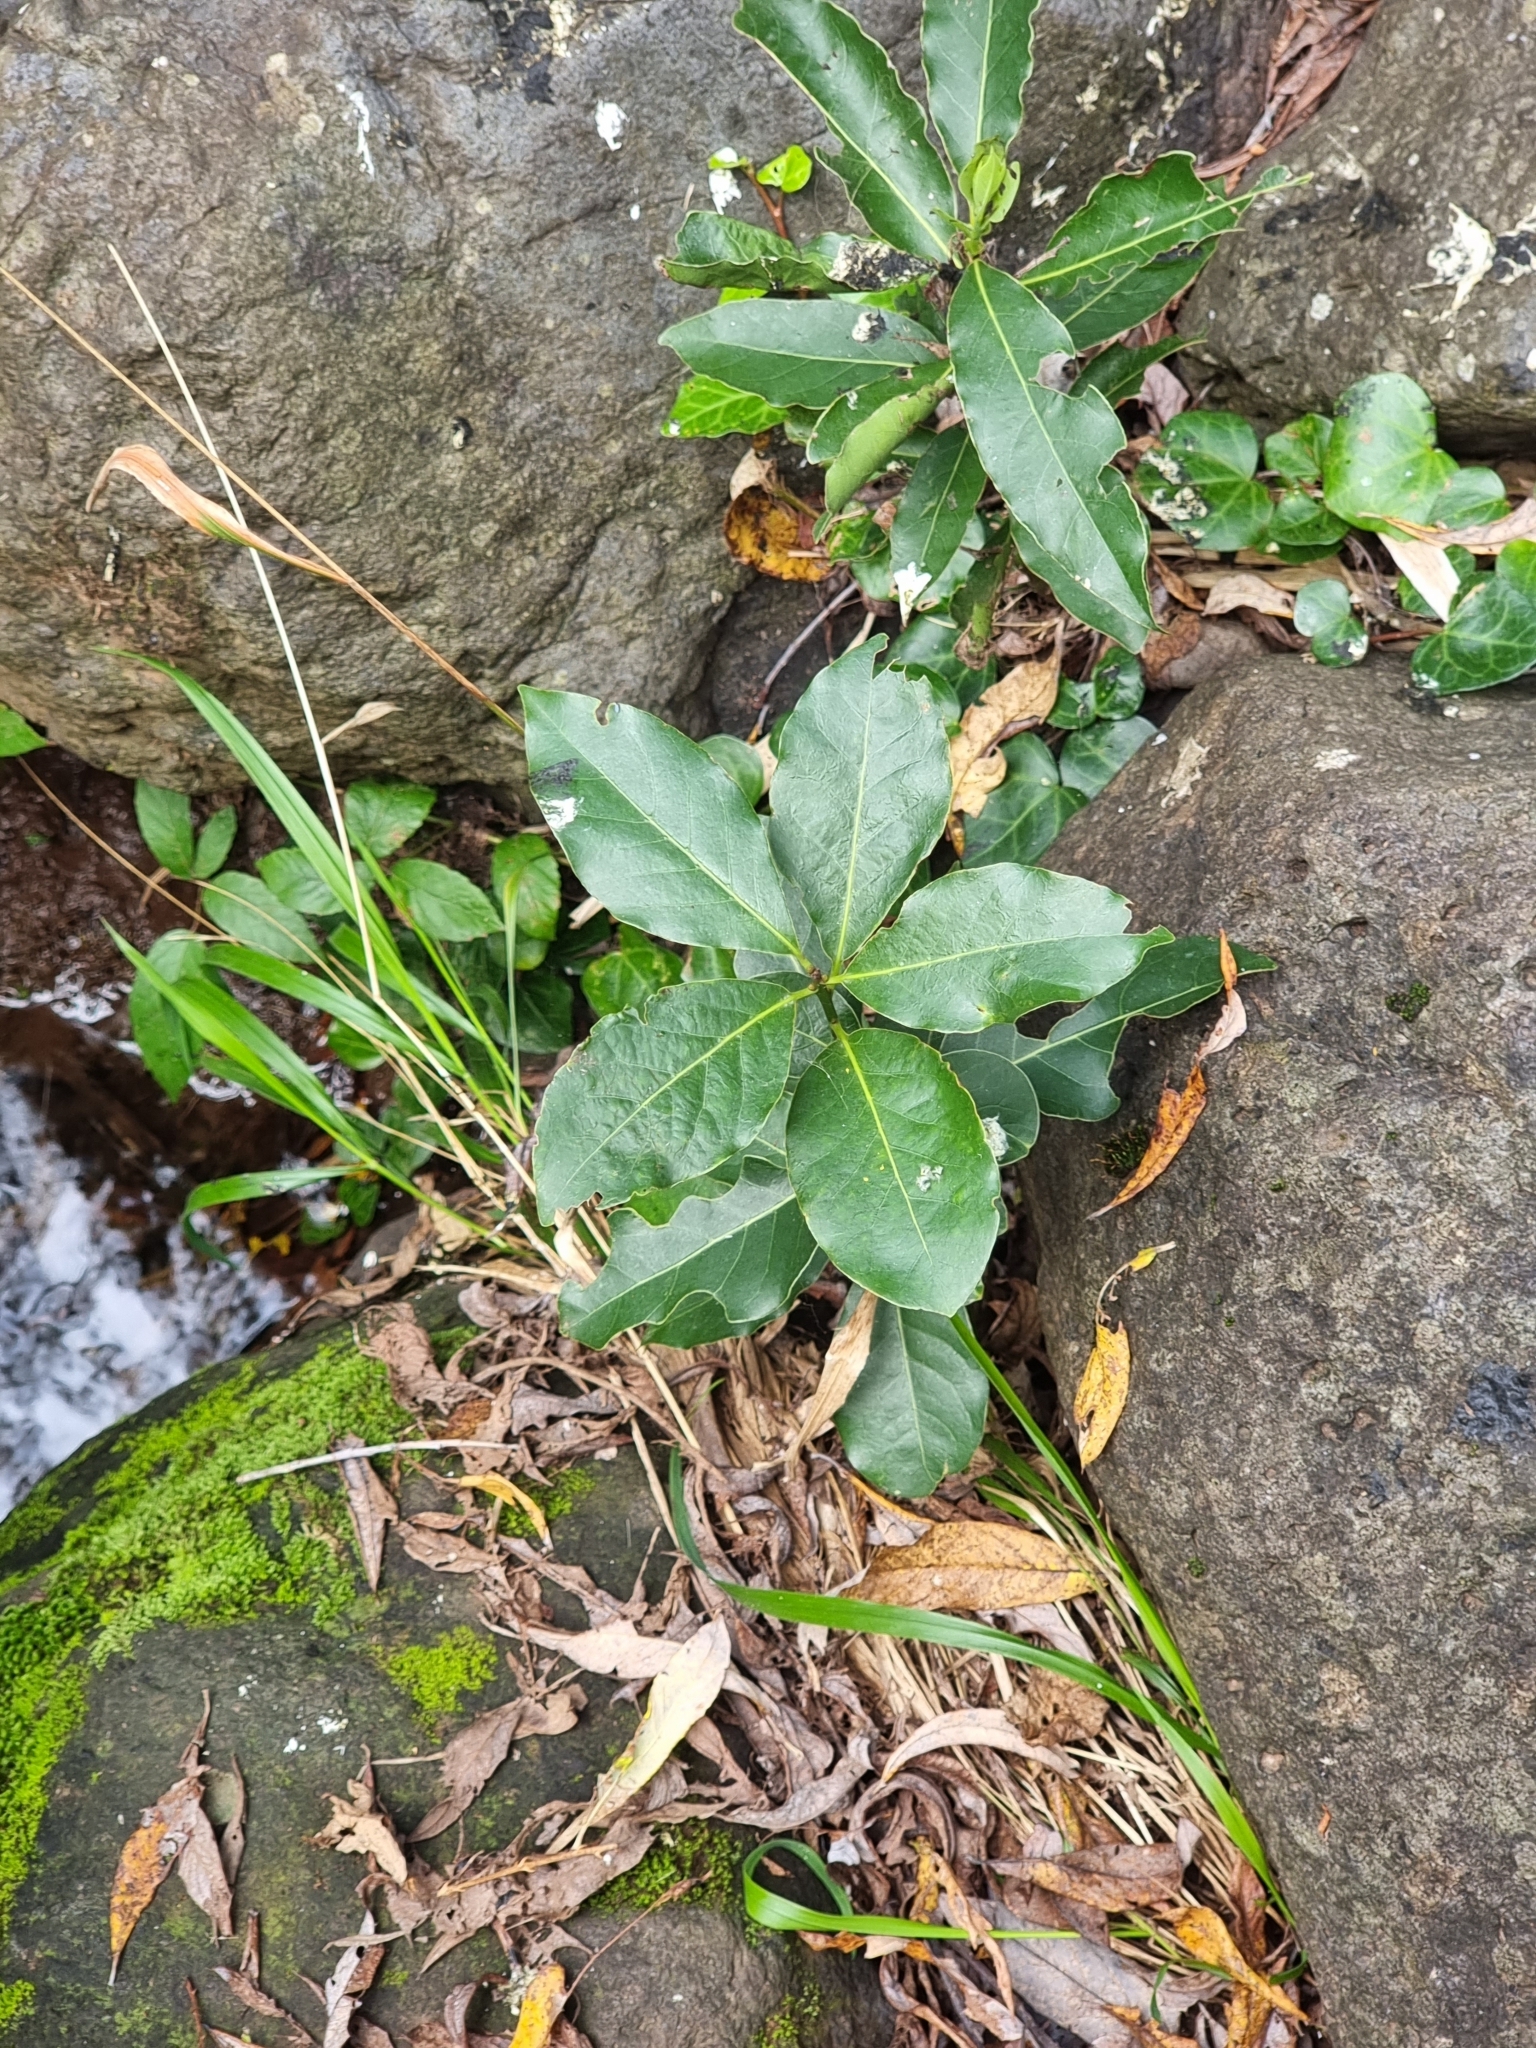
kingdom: Plantae
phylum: Tracheophyta
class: Magnoliopsida
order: Laurales
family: Lauraceae
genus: Laurus
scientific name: Laurus novocanariensis
